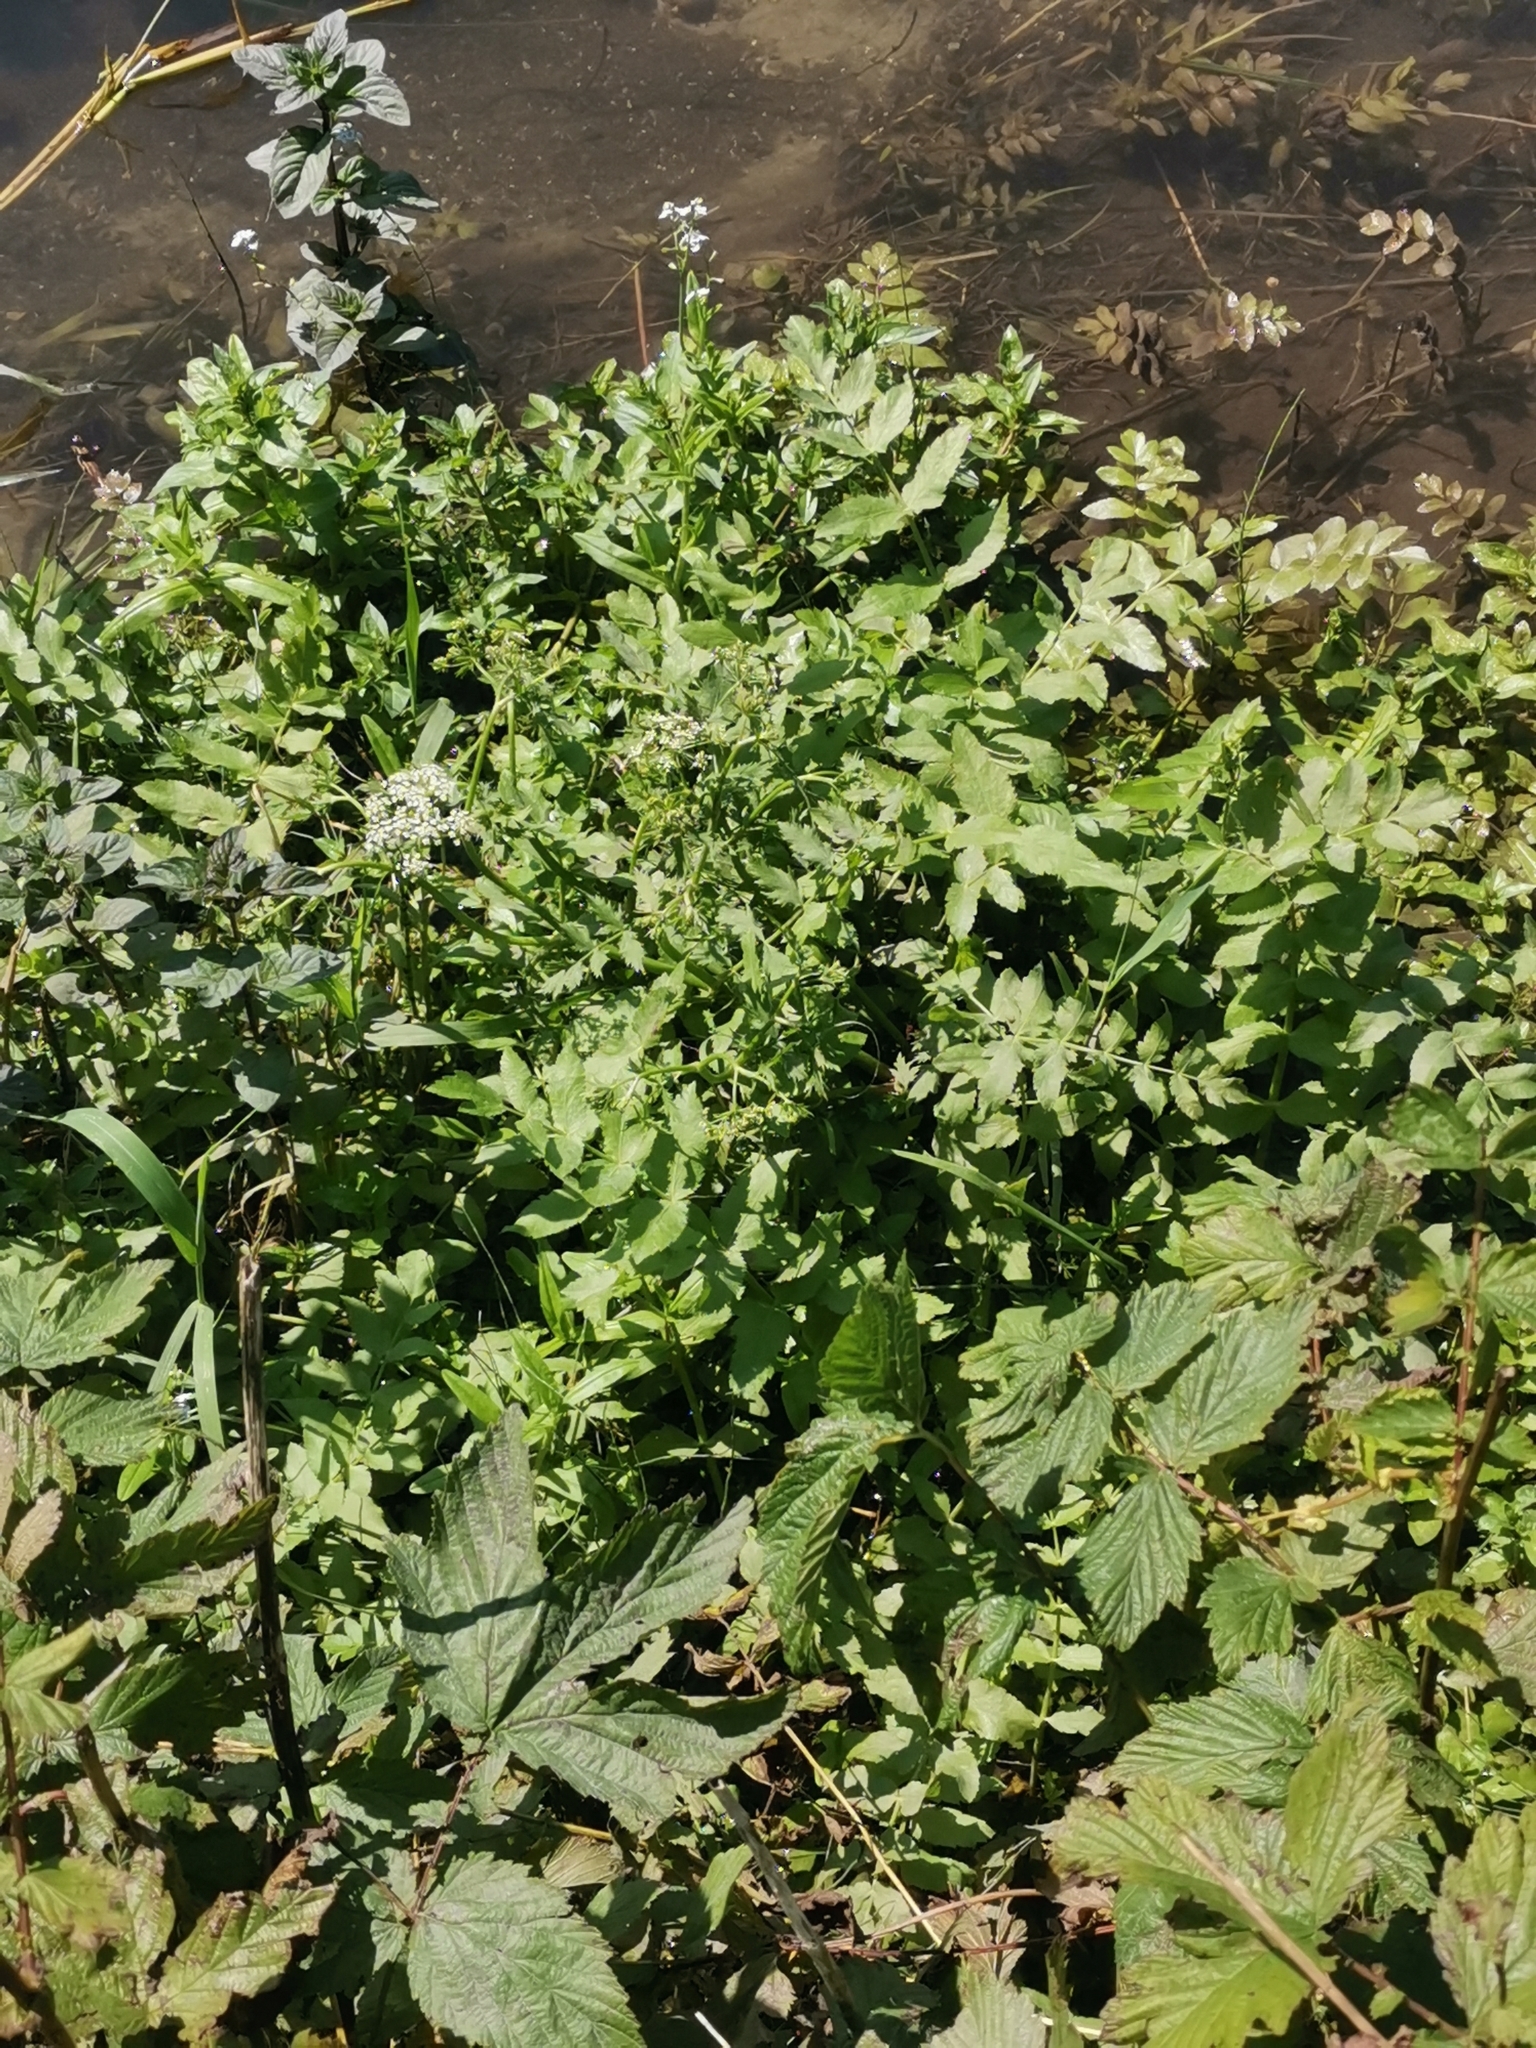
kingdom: Plantae
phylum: Tracheophyta
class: Magnoliopsida
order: Apiales
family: Apiaceae
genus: Berula
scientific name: Berula erecta
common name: Lesser water-parsnip
